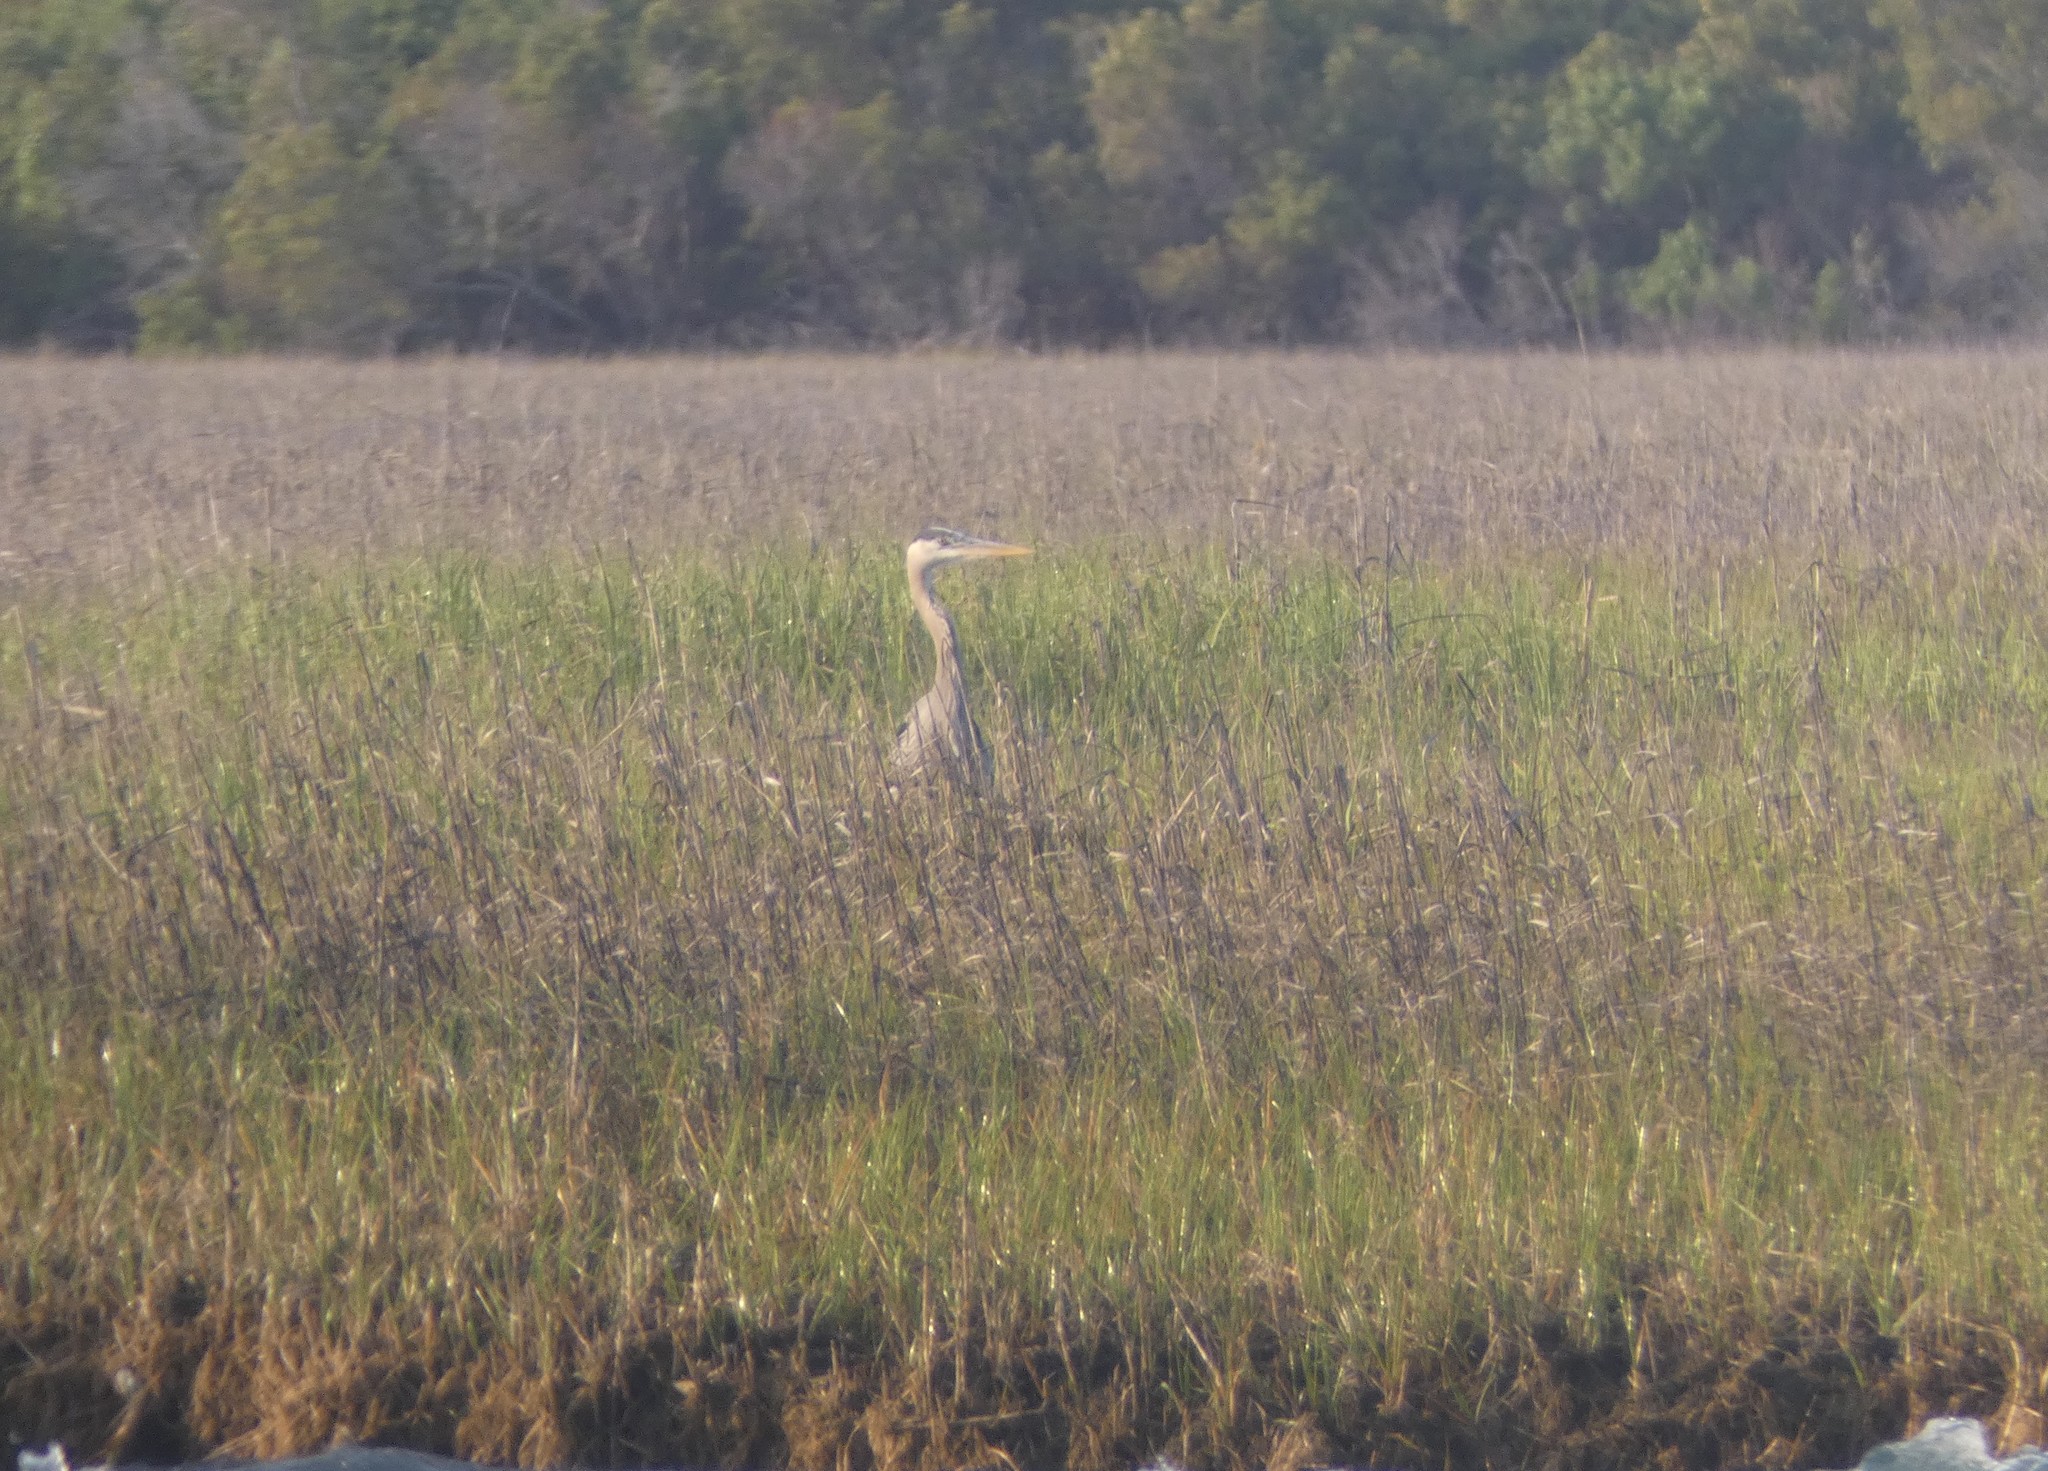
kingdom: Animalia
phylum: Chordata
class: Aves
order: Pelecaniformes
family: Ardeidae
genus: Ardea
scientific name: Ardea herodias
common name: Great blue heron
